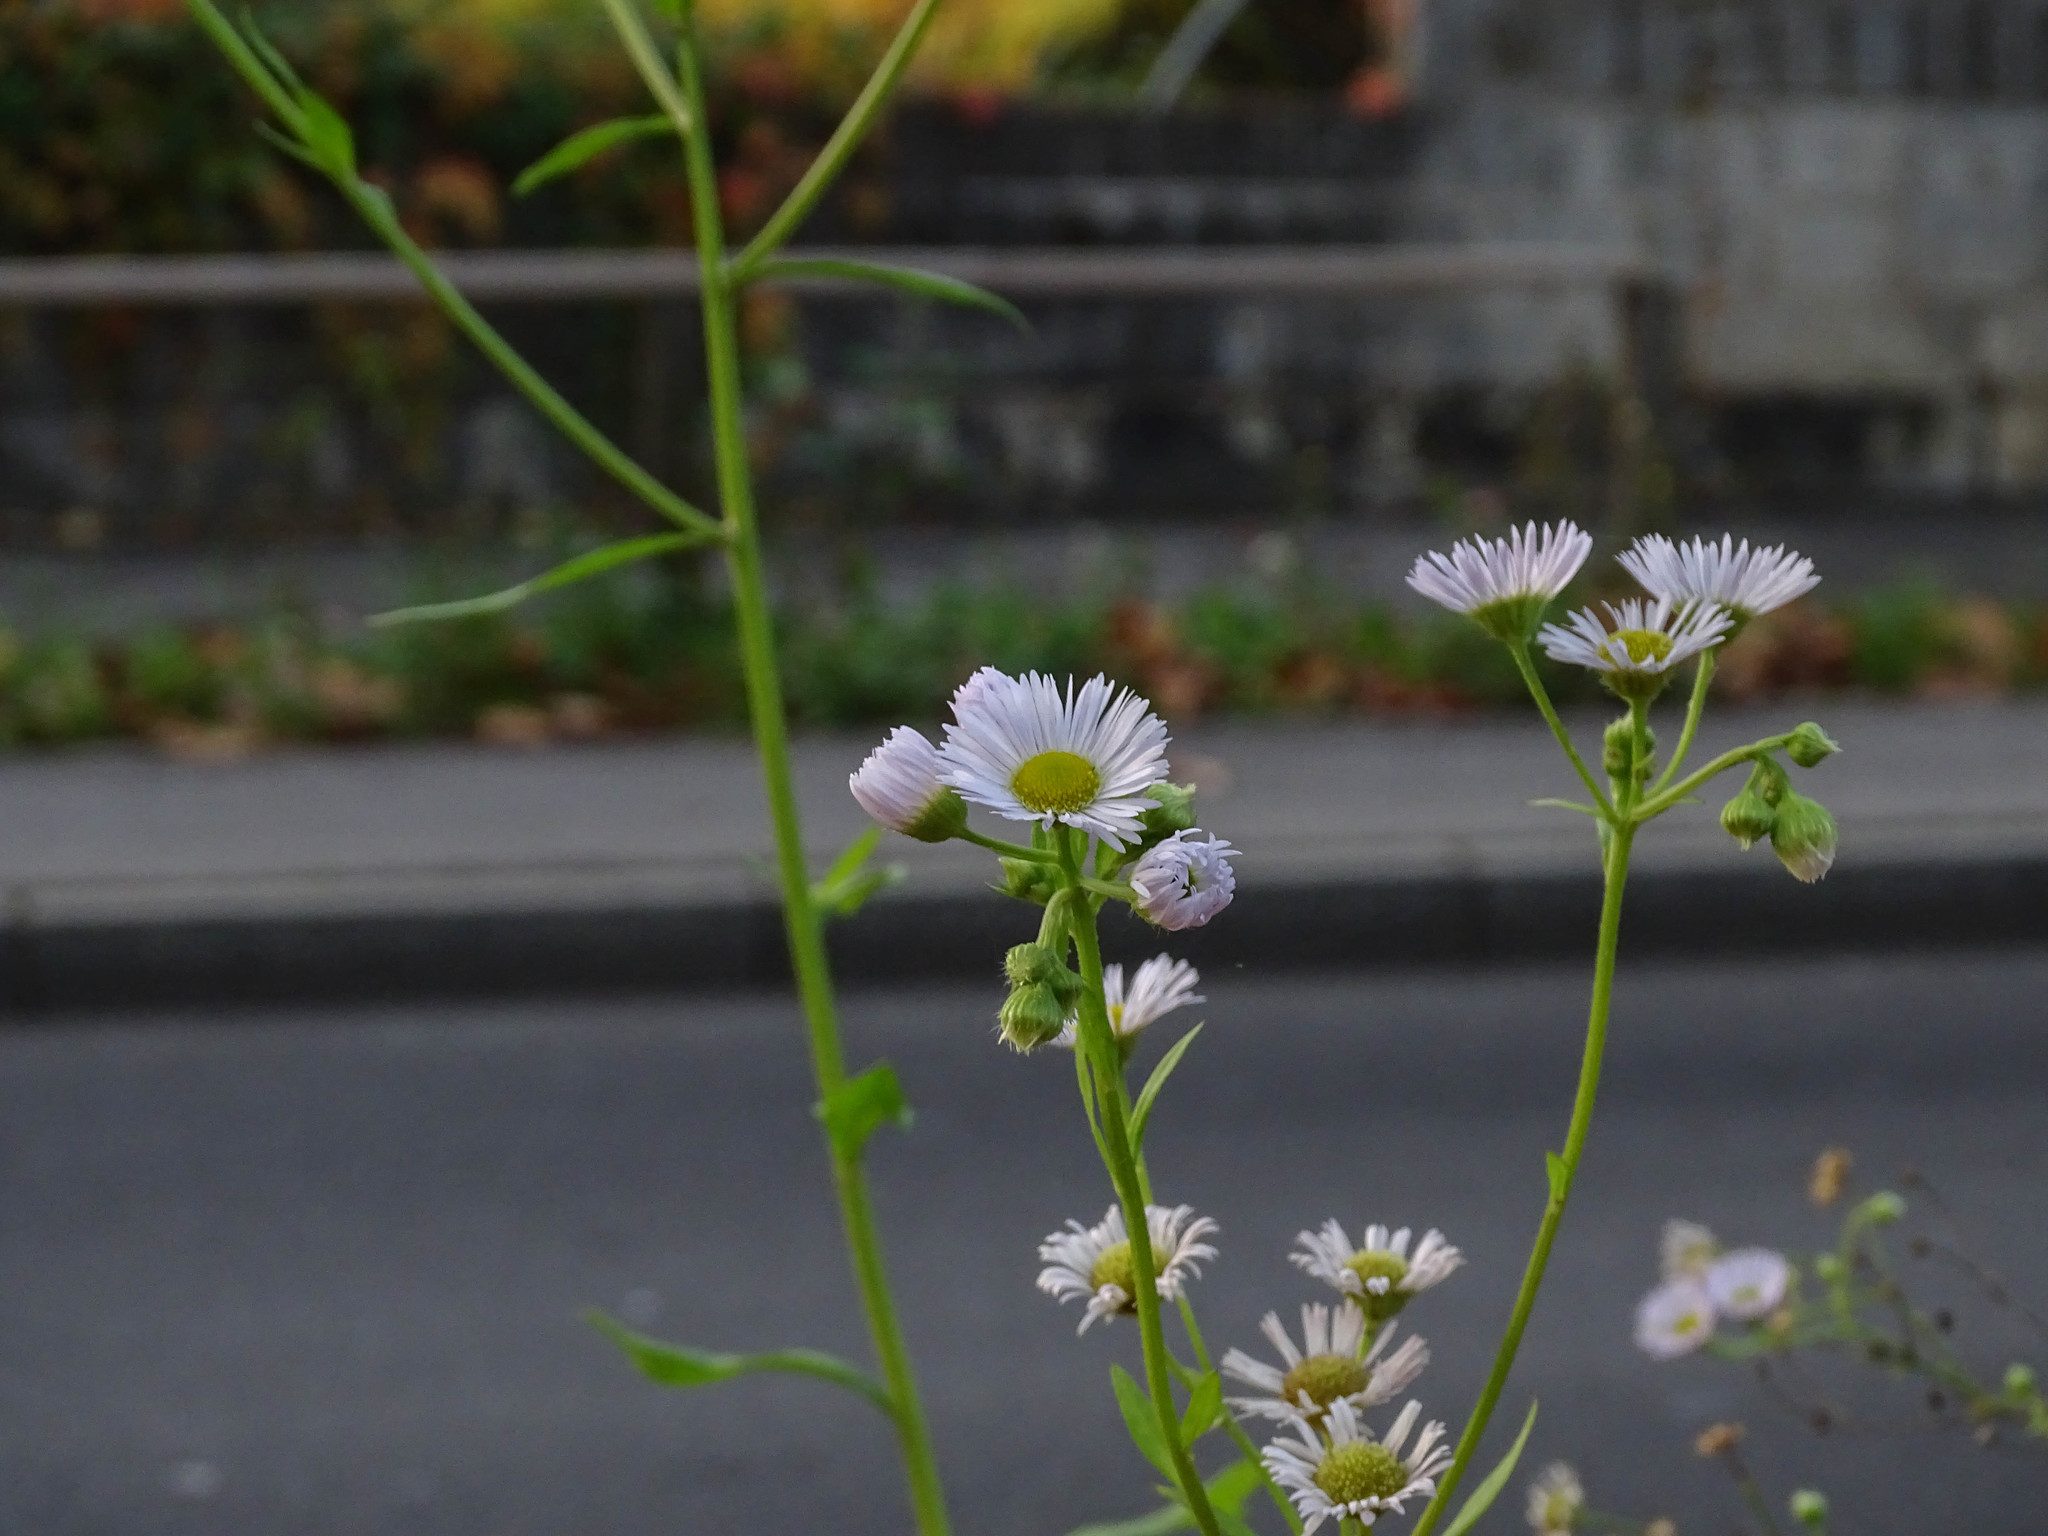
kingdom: Plantae
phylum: Tracheophyta
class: Magnoliopsida
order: Asterales
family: Asteraceae
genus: Erigeron
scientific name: Erigeron annuus
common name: Tall fleabane
